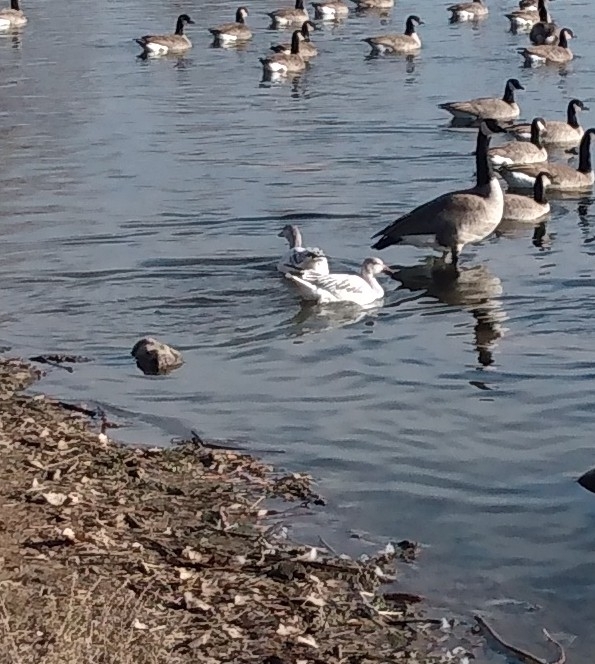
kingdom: Animalia
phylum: Chordata
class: Aves
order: Anseriformes
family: Anatidae
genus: Anser
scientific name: Anser caerulescens
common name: Snow goose
